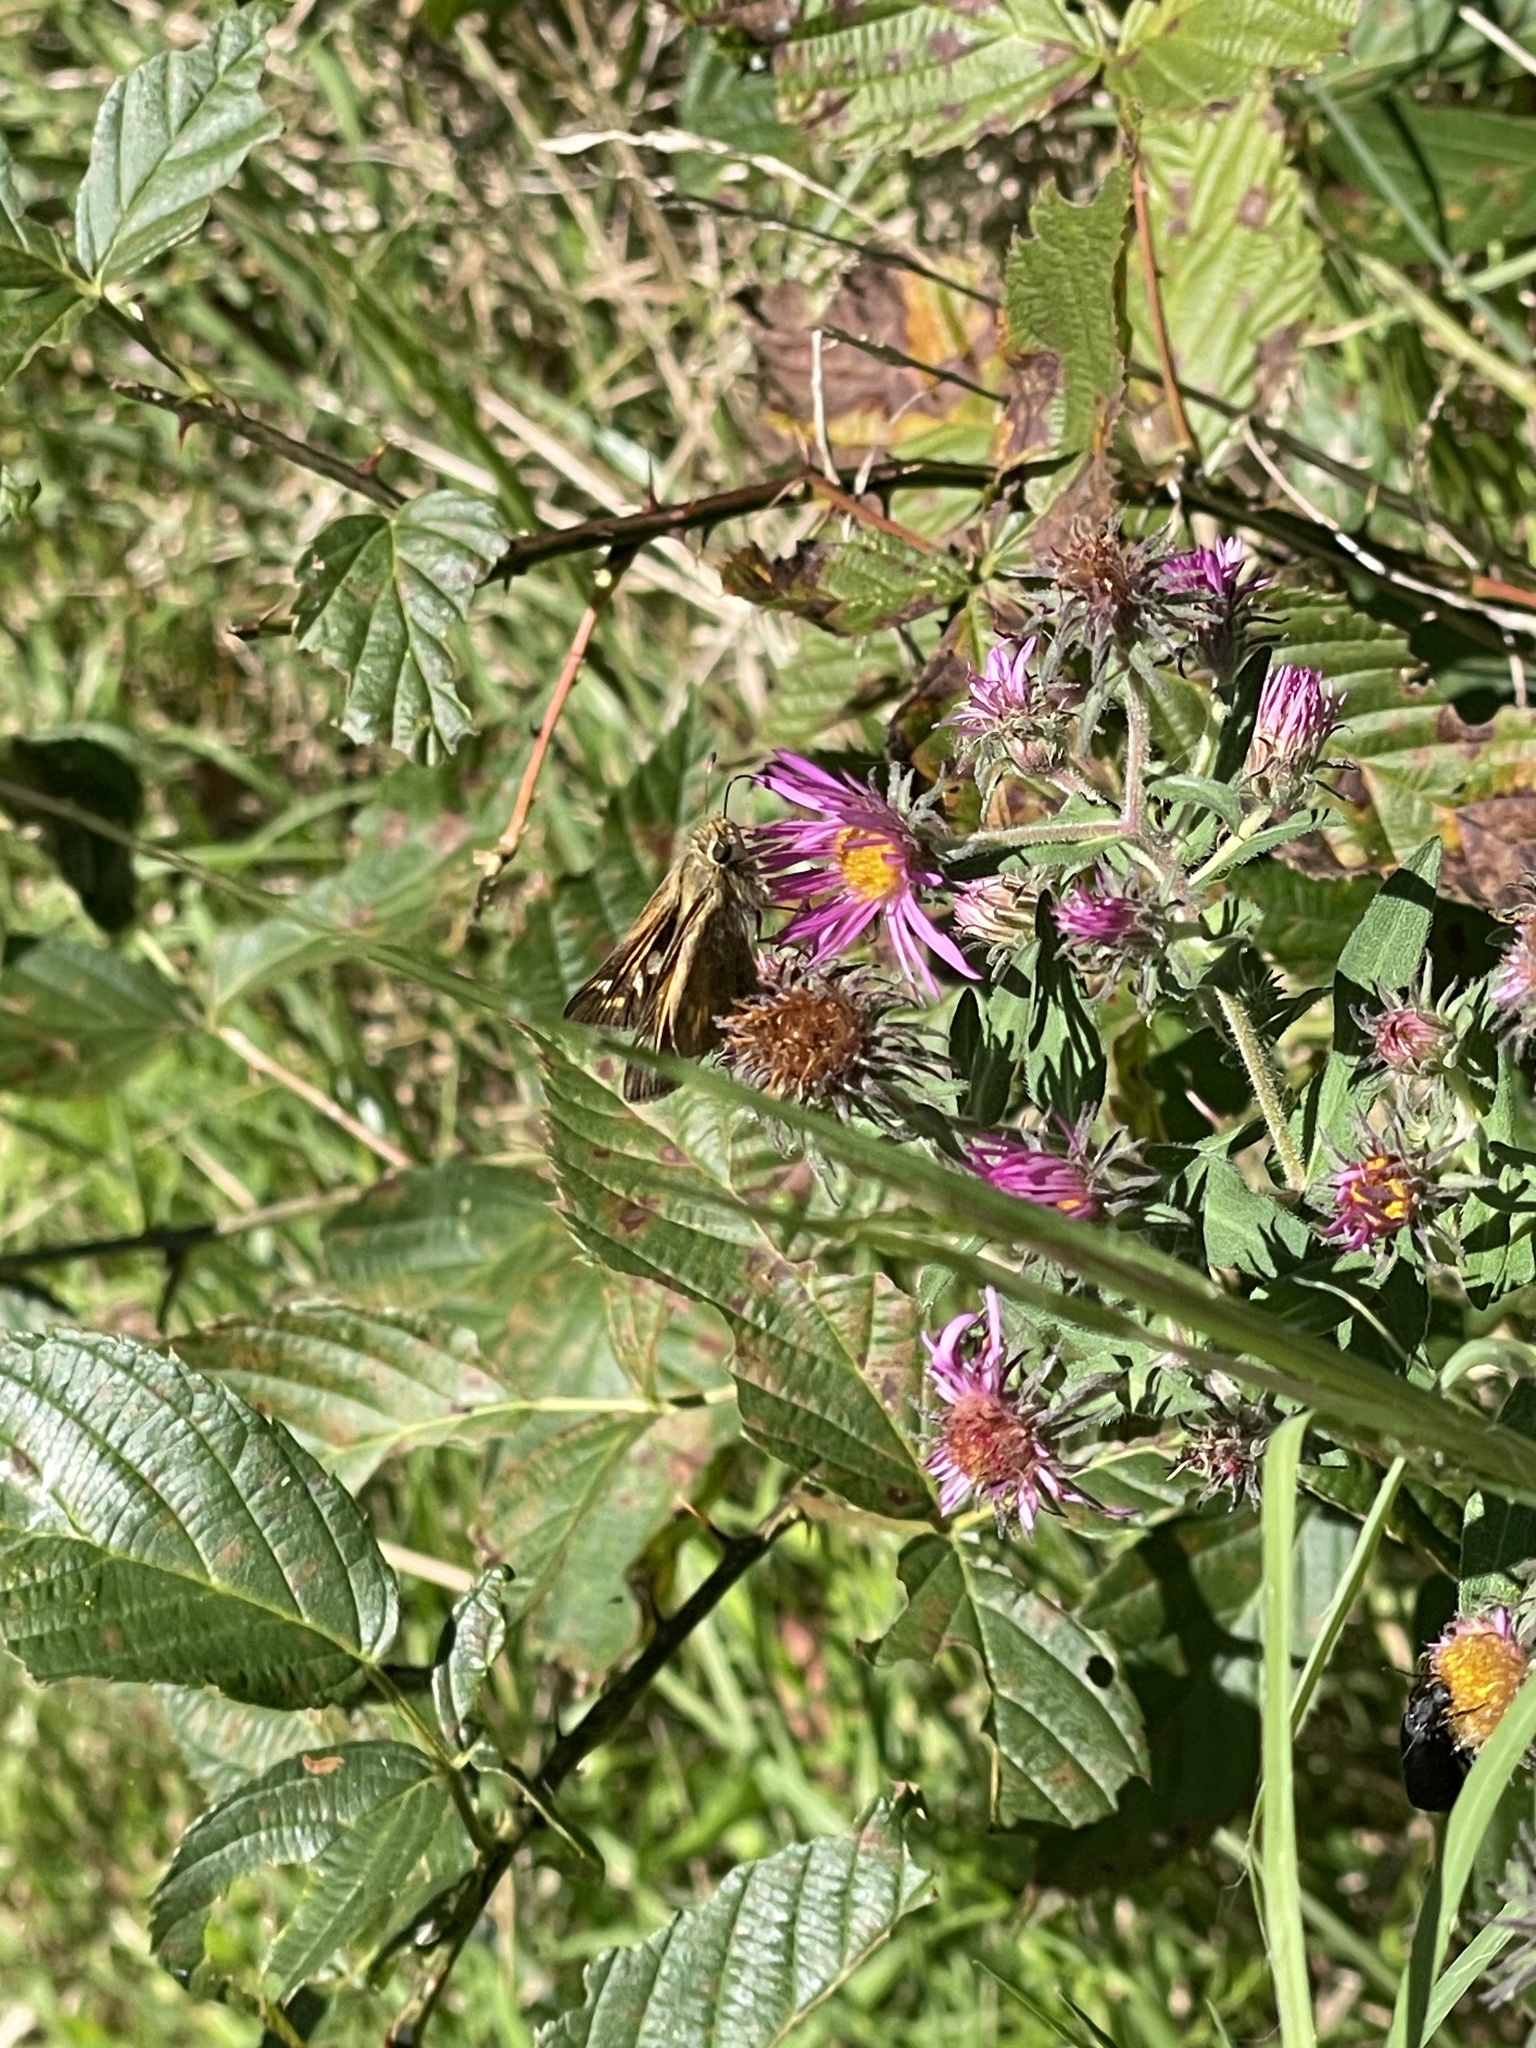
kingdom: Animalia
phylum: Arthropoda
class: Insecta
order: Lepidoptera
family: Hesperiidae
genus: Atalopedes
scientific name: Atalopedes
